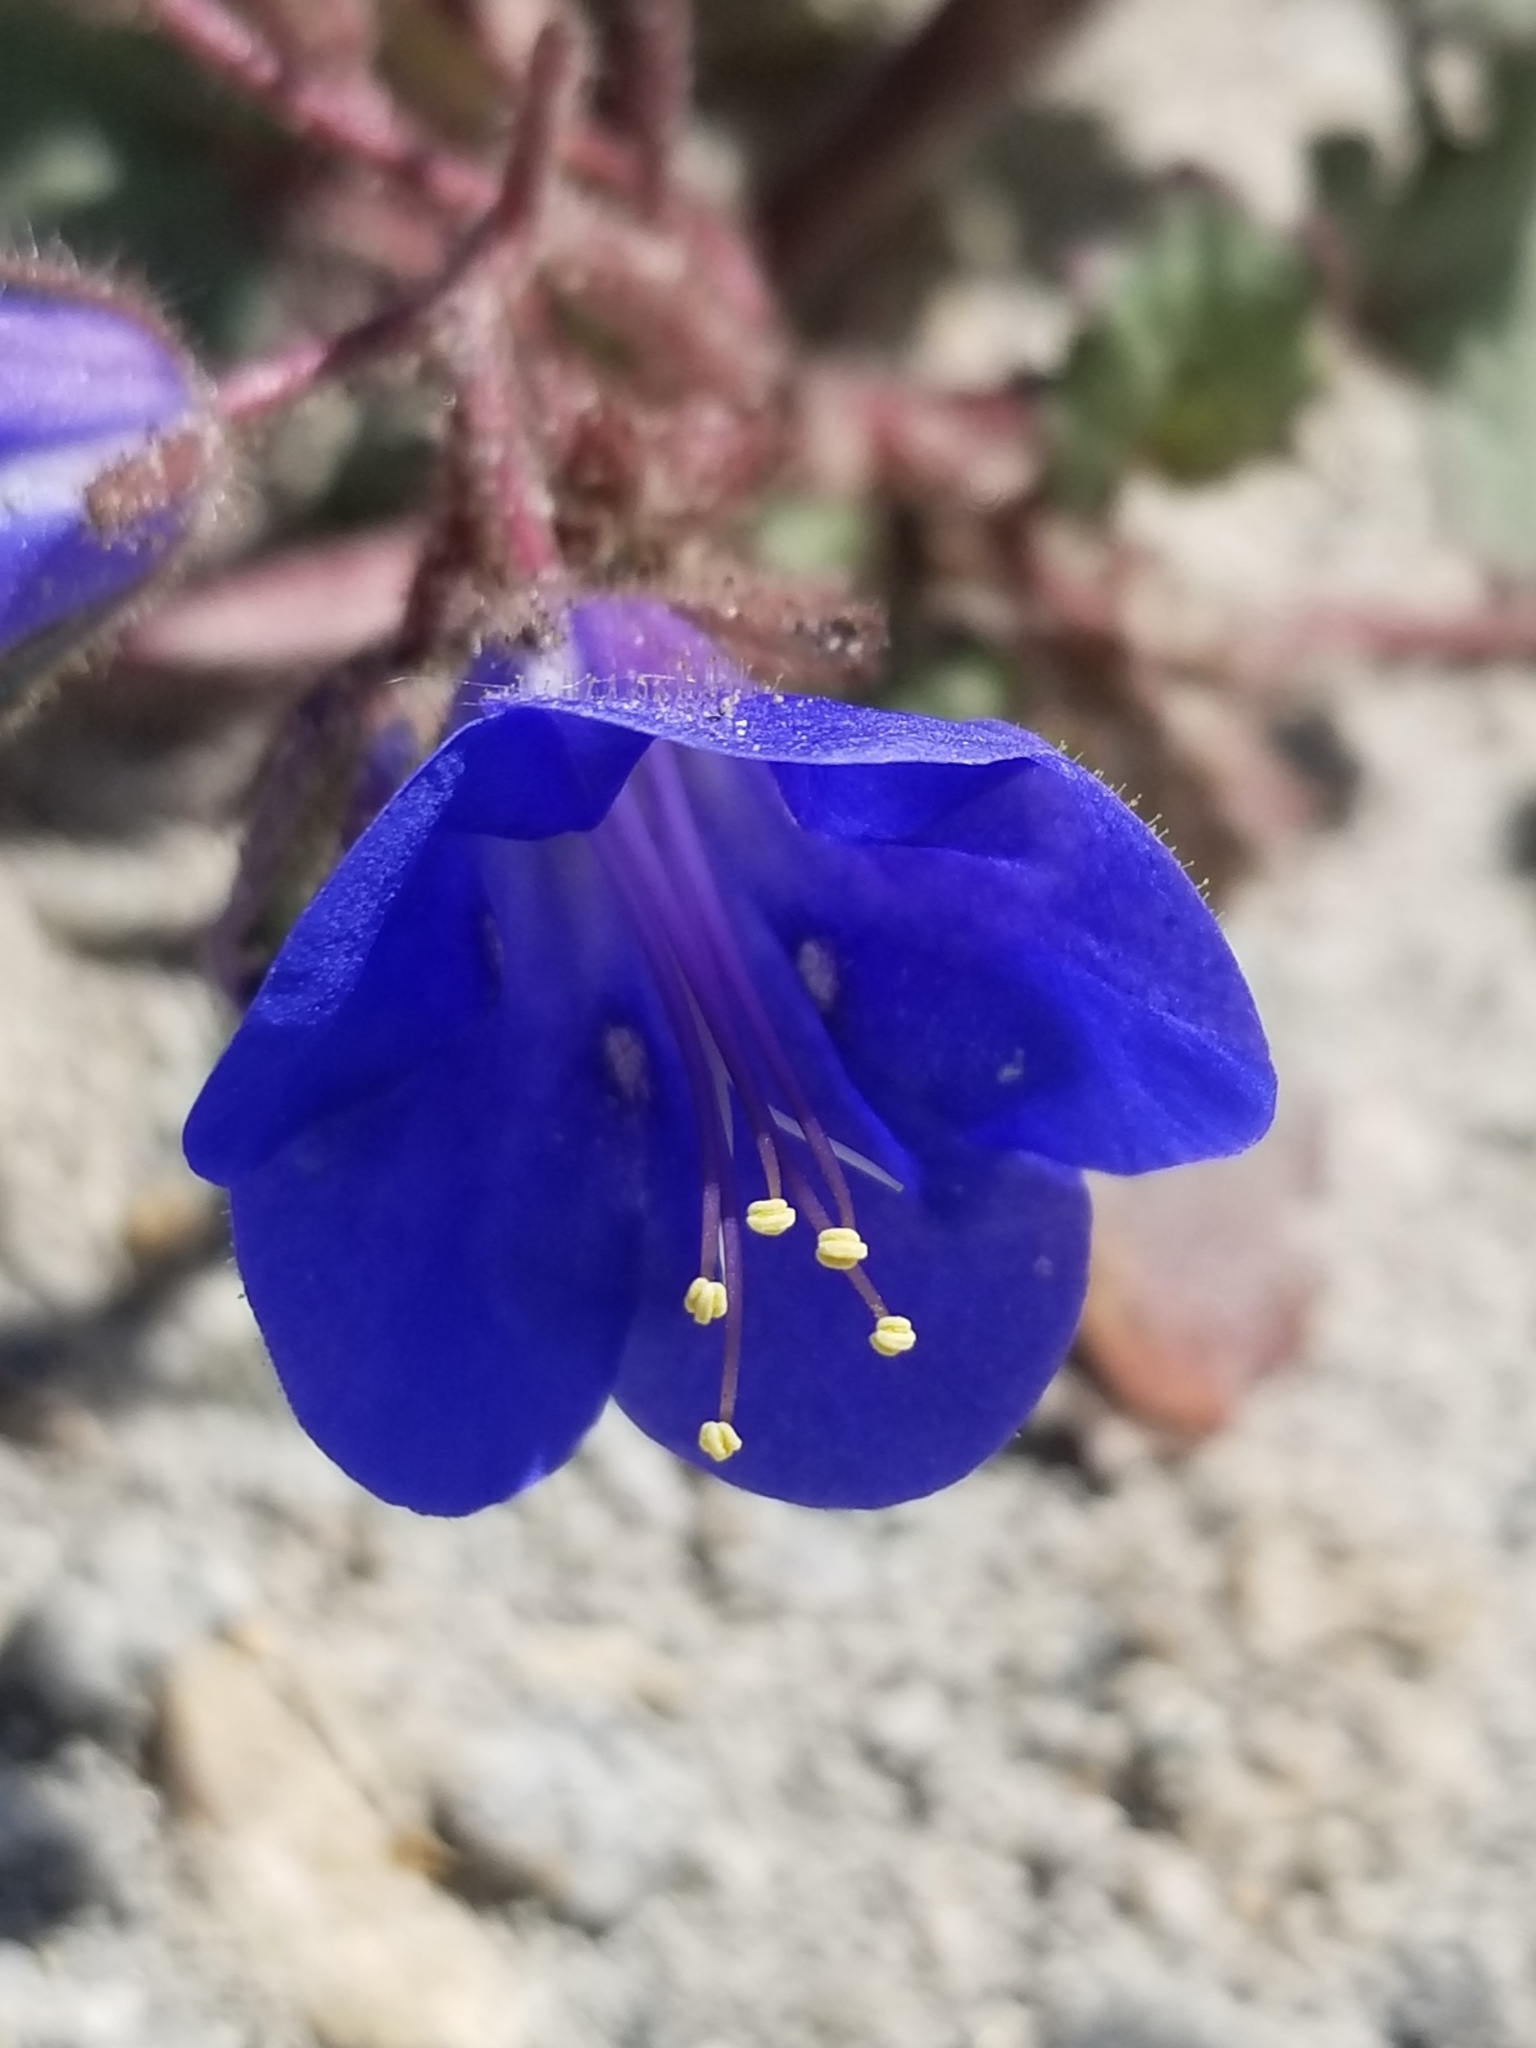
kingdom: Plantae
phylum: Tracheophyta
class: Magnoliopsida
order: Boraginales
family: Hydrophyllaceae
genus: Phacelia
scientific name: Phacelia campanularia
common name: California bluebell
